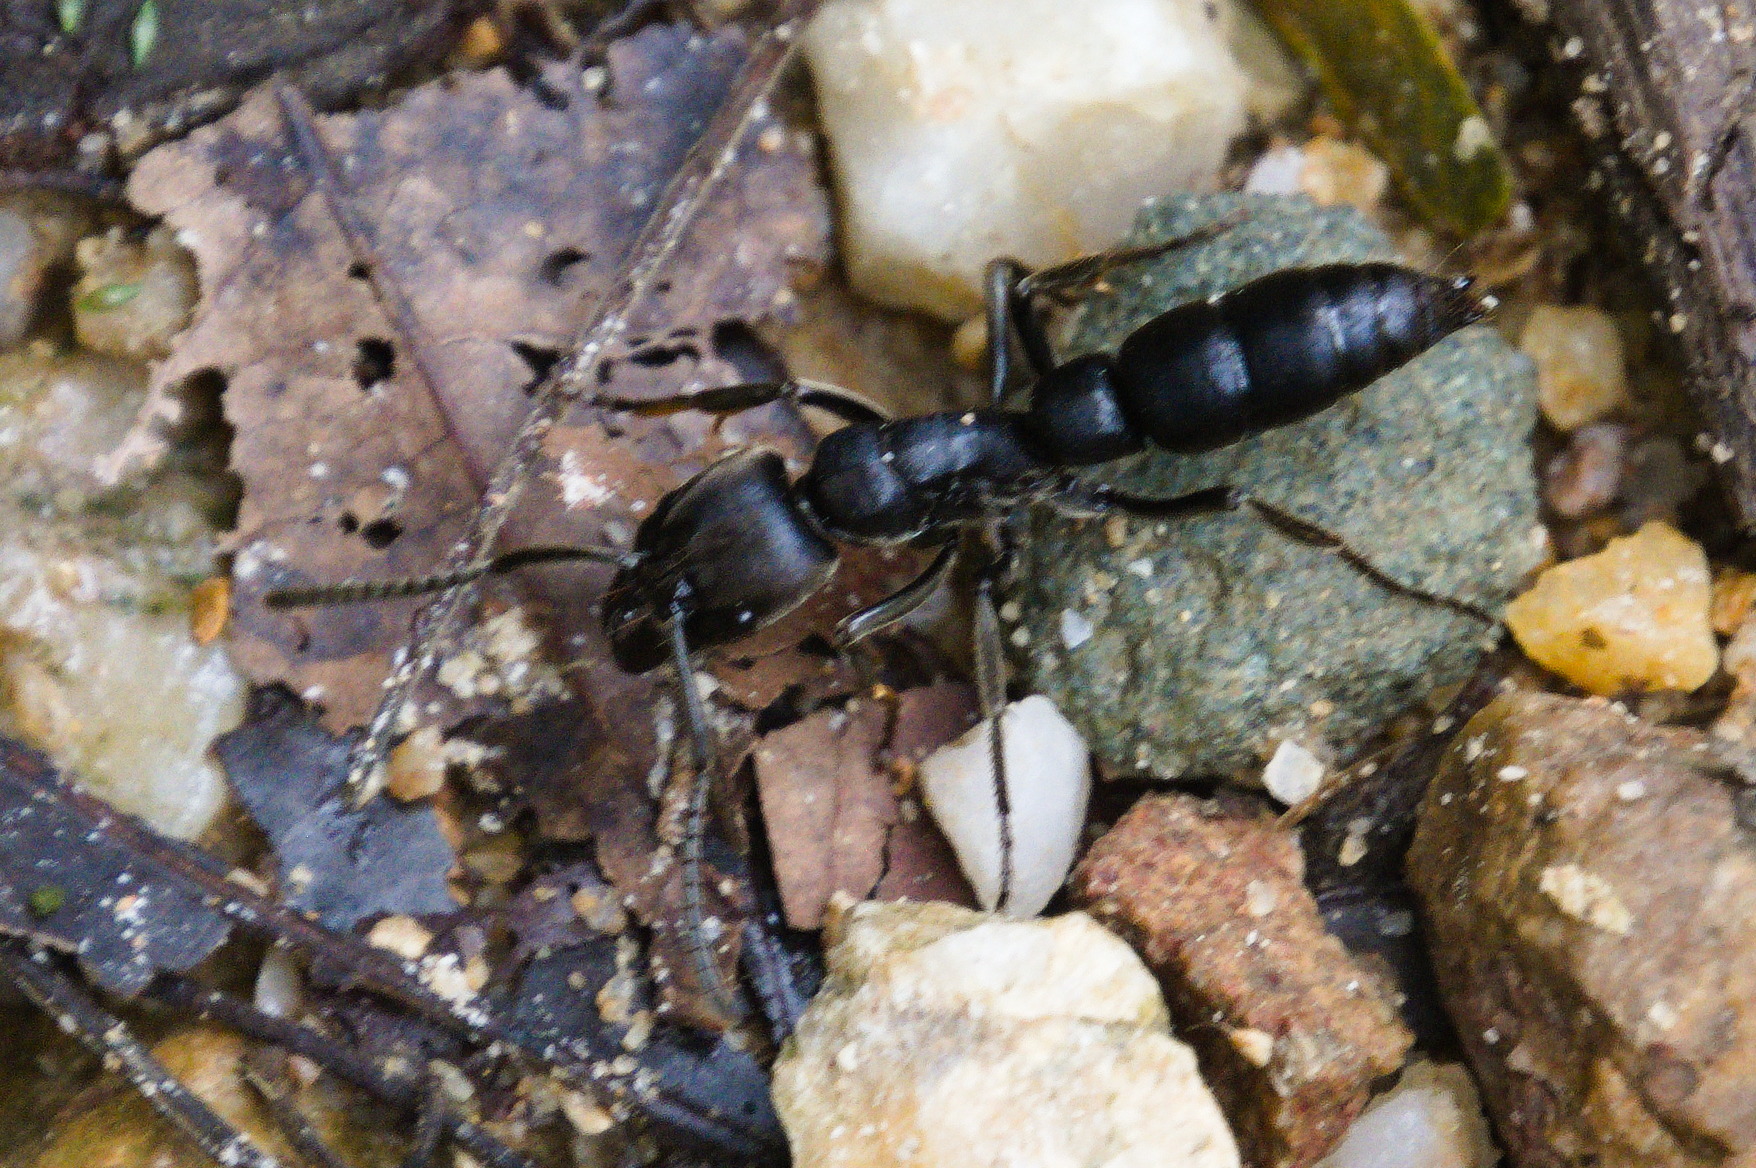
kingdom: Animalia
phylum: Arthropoda
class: Insecta
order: Hymenoptera
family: Formicidae
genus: Pachycondyla
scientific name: Pachycondyla crassinoda
